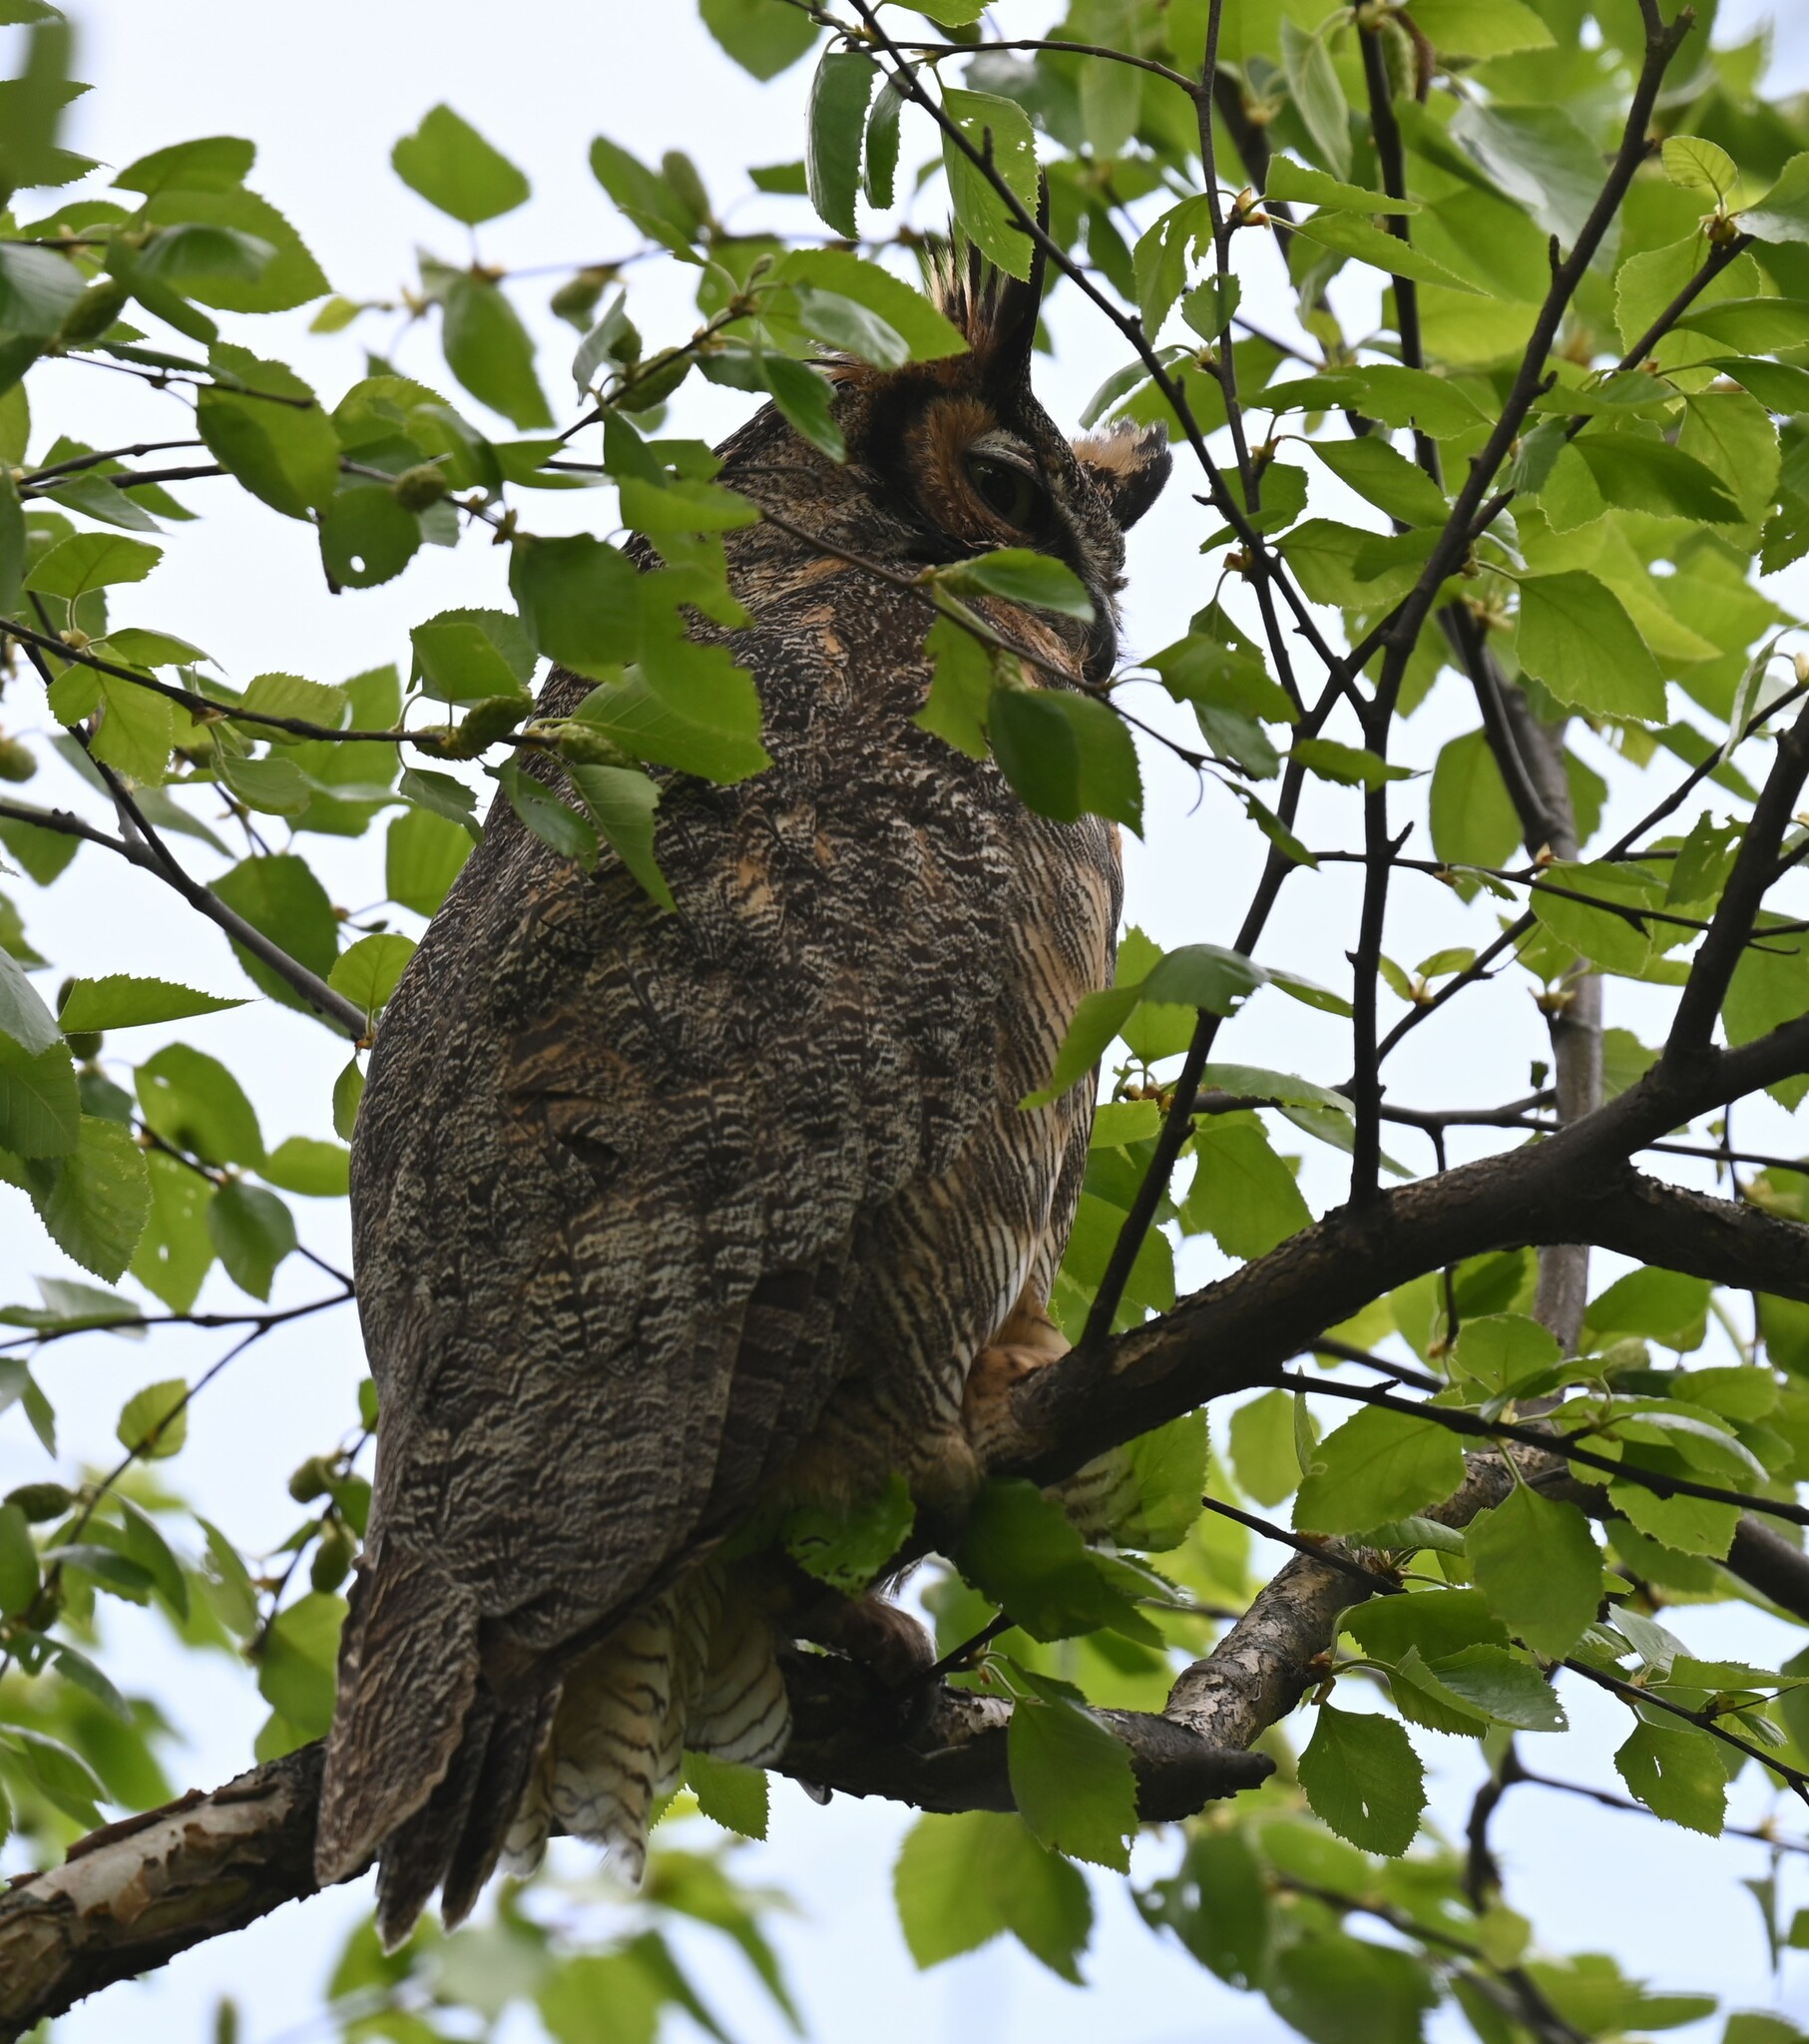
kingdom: Animalia
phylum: Chordata
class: Aves
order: Strigiformes
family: Strigidae
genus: Bubo
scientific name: Bubo virginianus
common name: Great horned owl
